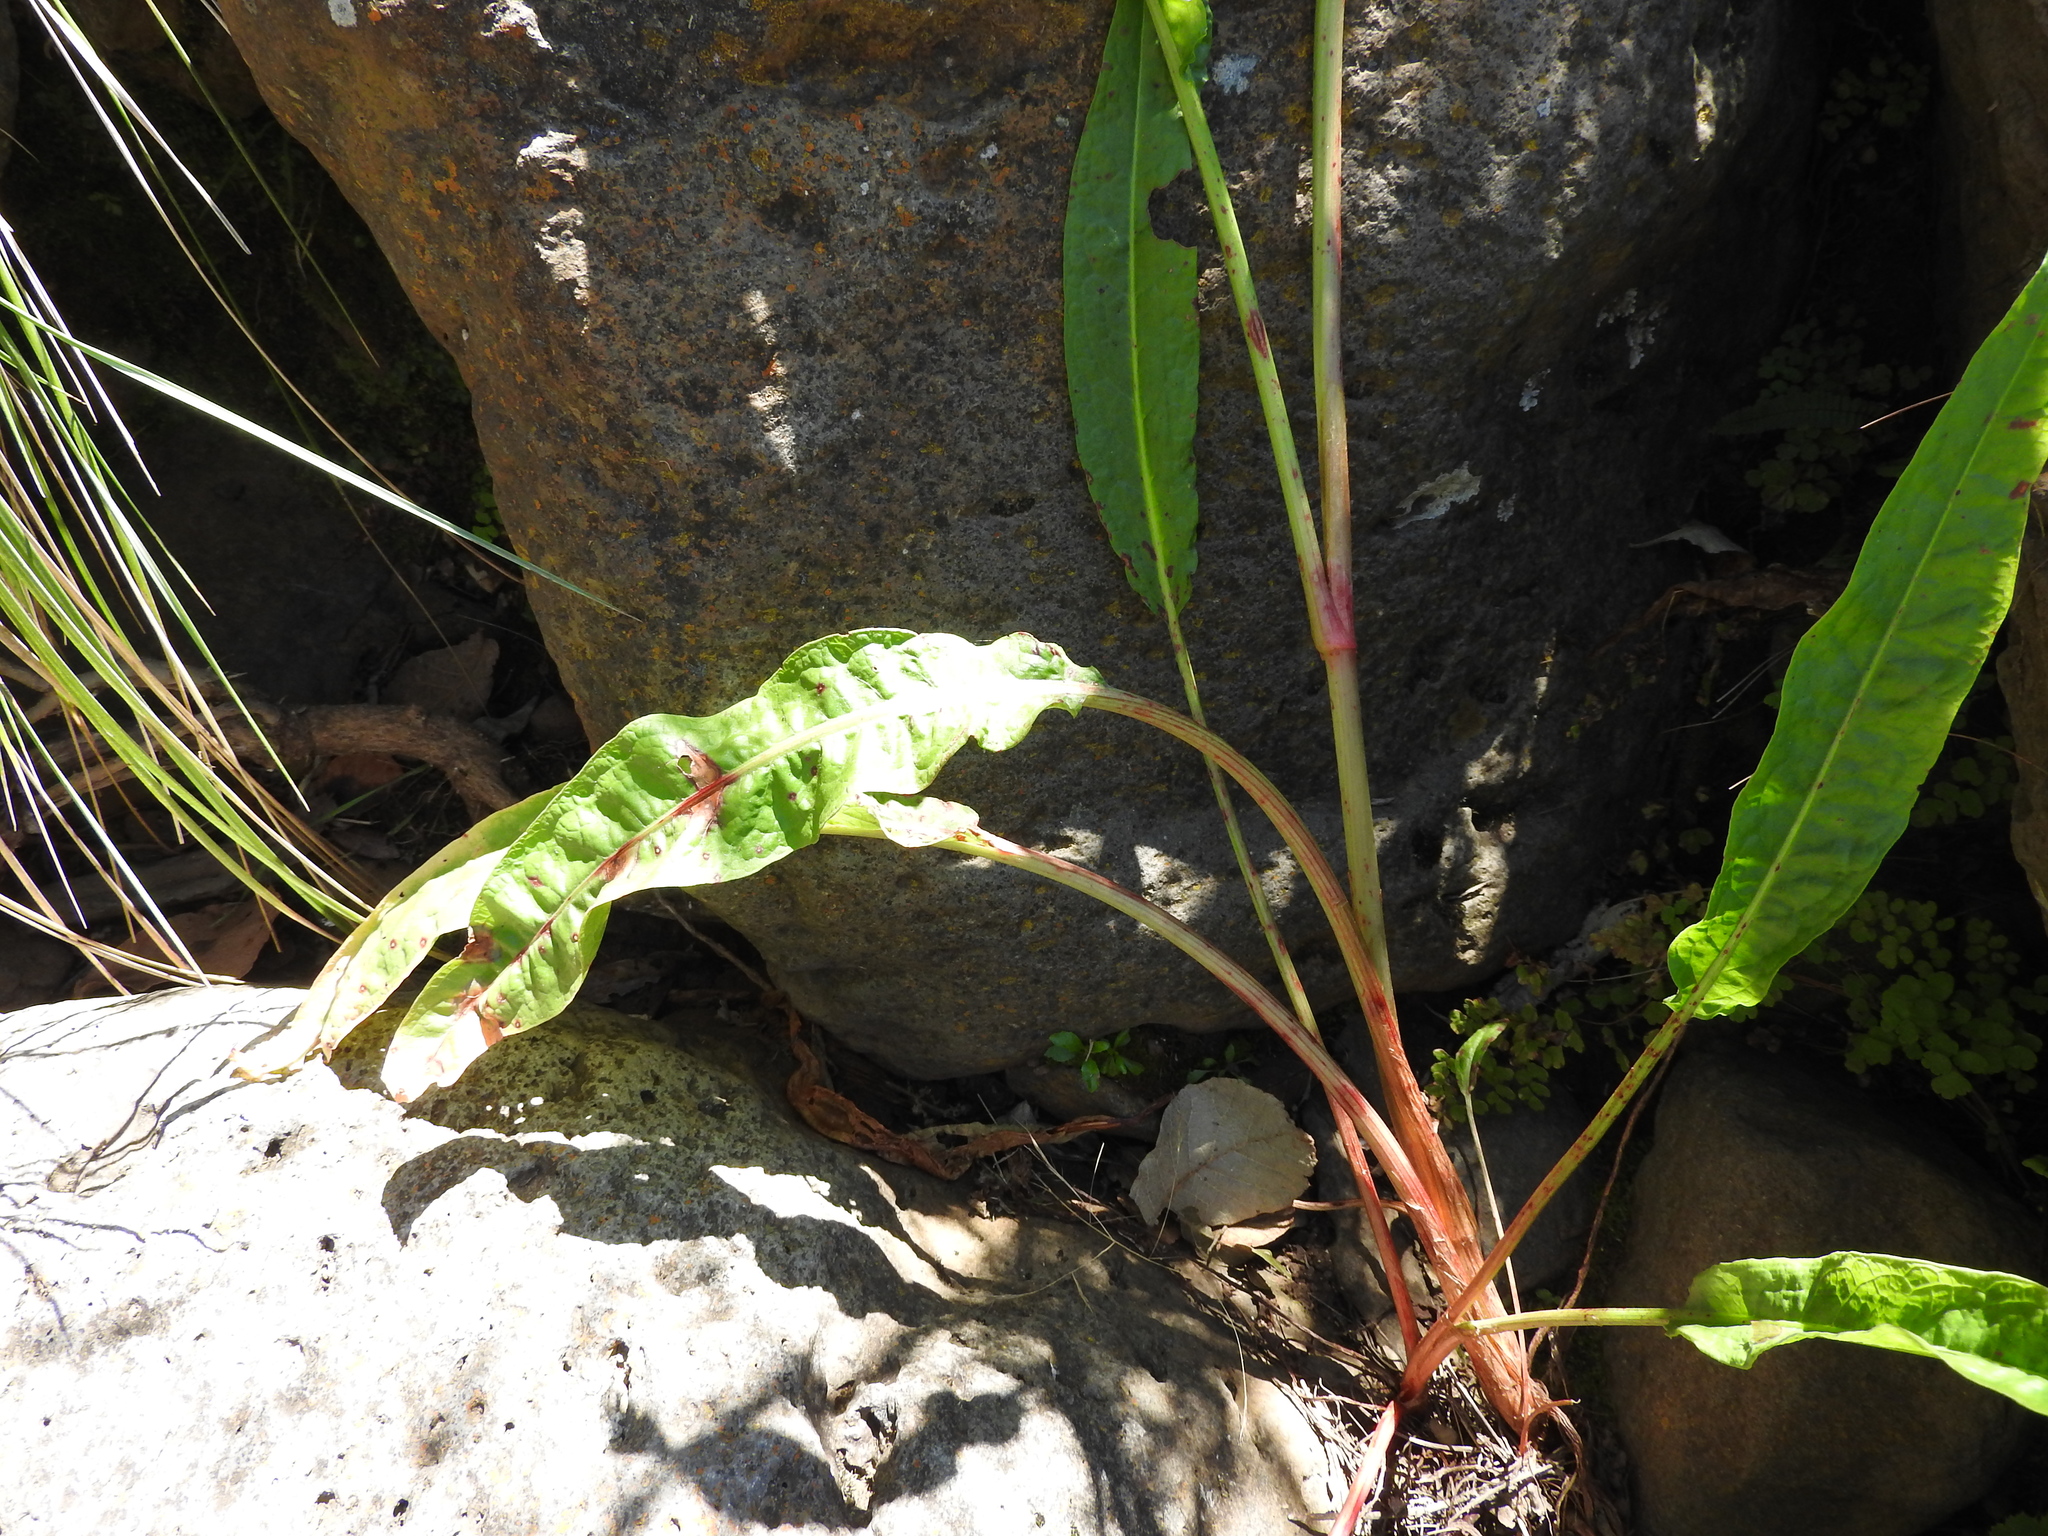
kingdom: Plantae
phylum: Tracheophyta
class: Magnoliopsida
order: Caryophyllales
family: Polygonaceae
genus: Rumex
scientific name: Rumex crispus
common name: Curled dock
